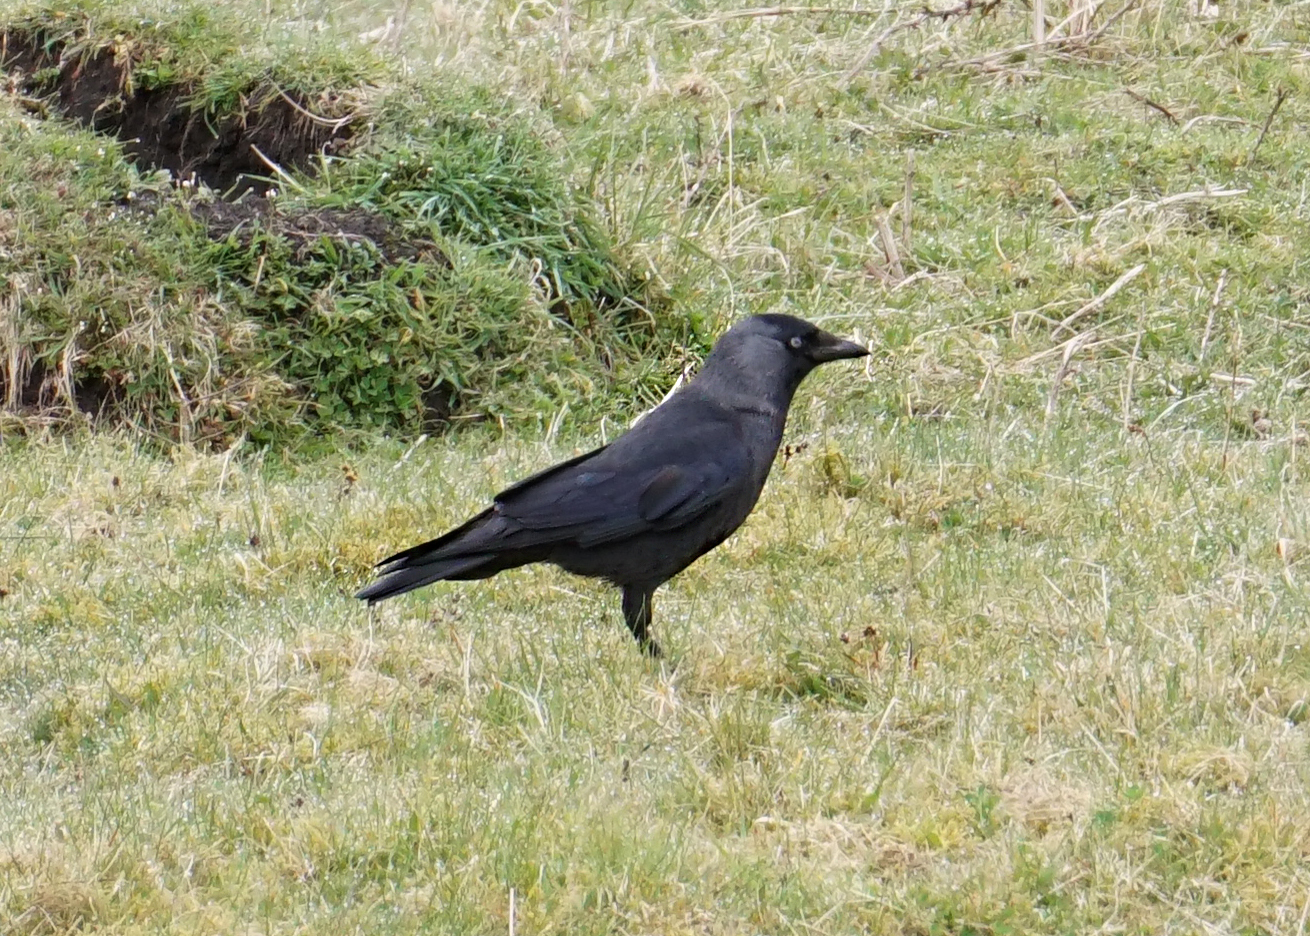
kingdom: Animalia
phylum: Chordata
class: Aves
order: Passeriformes
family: Corvidae
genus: Coloeus
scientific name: Coloeus monedula
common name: Western jackdaw
